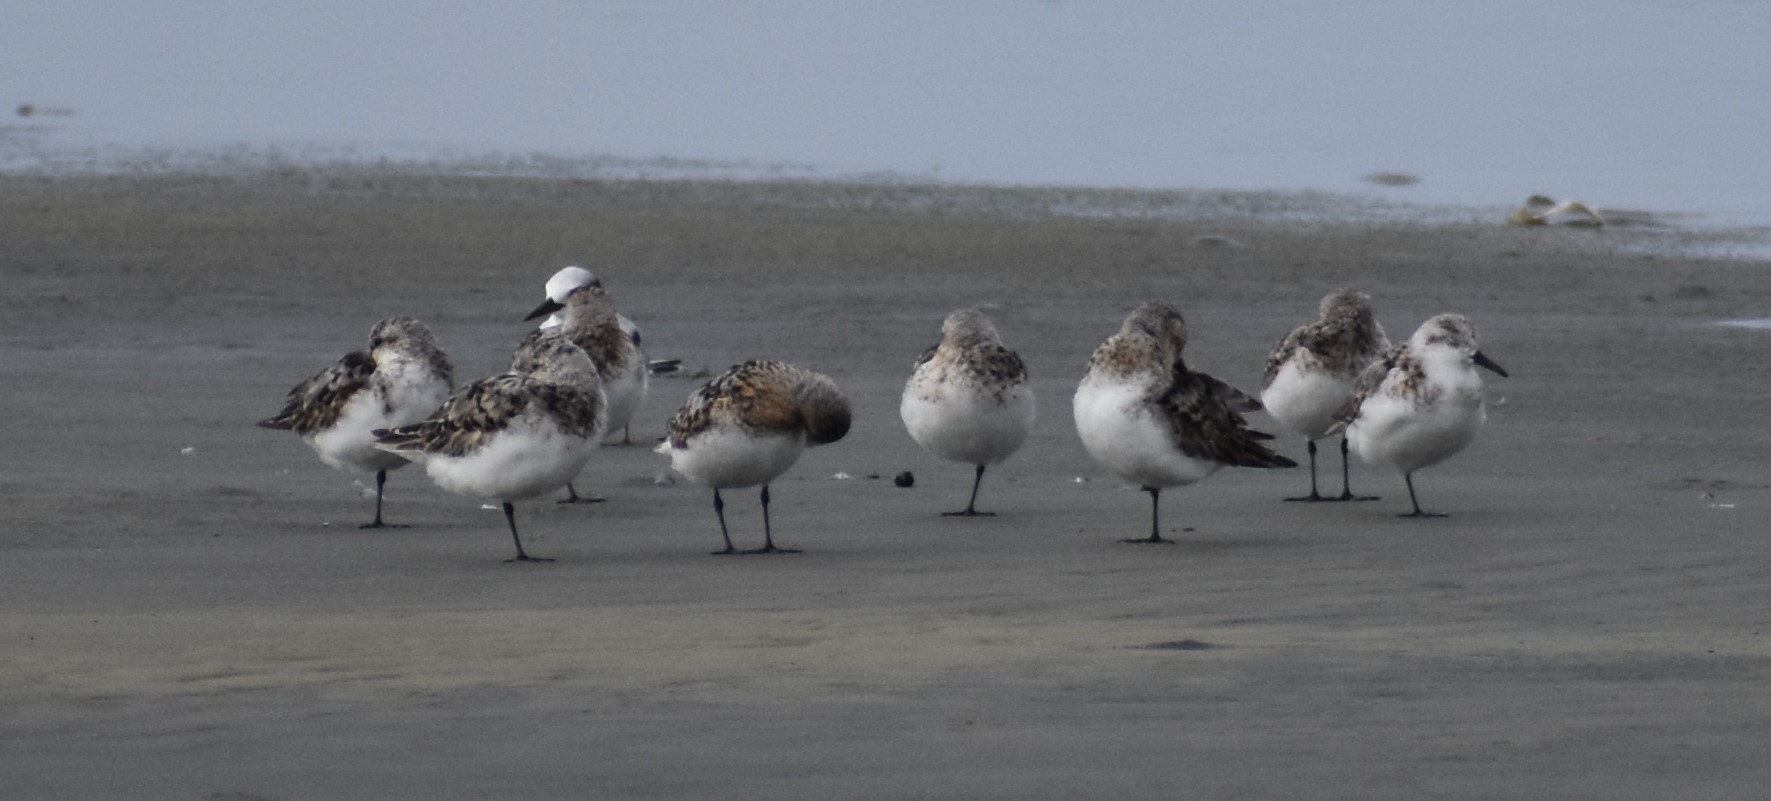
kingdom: Animalia
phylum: Chordata
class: Aves
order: Charadriiformes
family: Scolopacidae
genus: Calidris
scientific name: Calidris alba
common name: Sanderling
